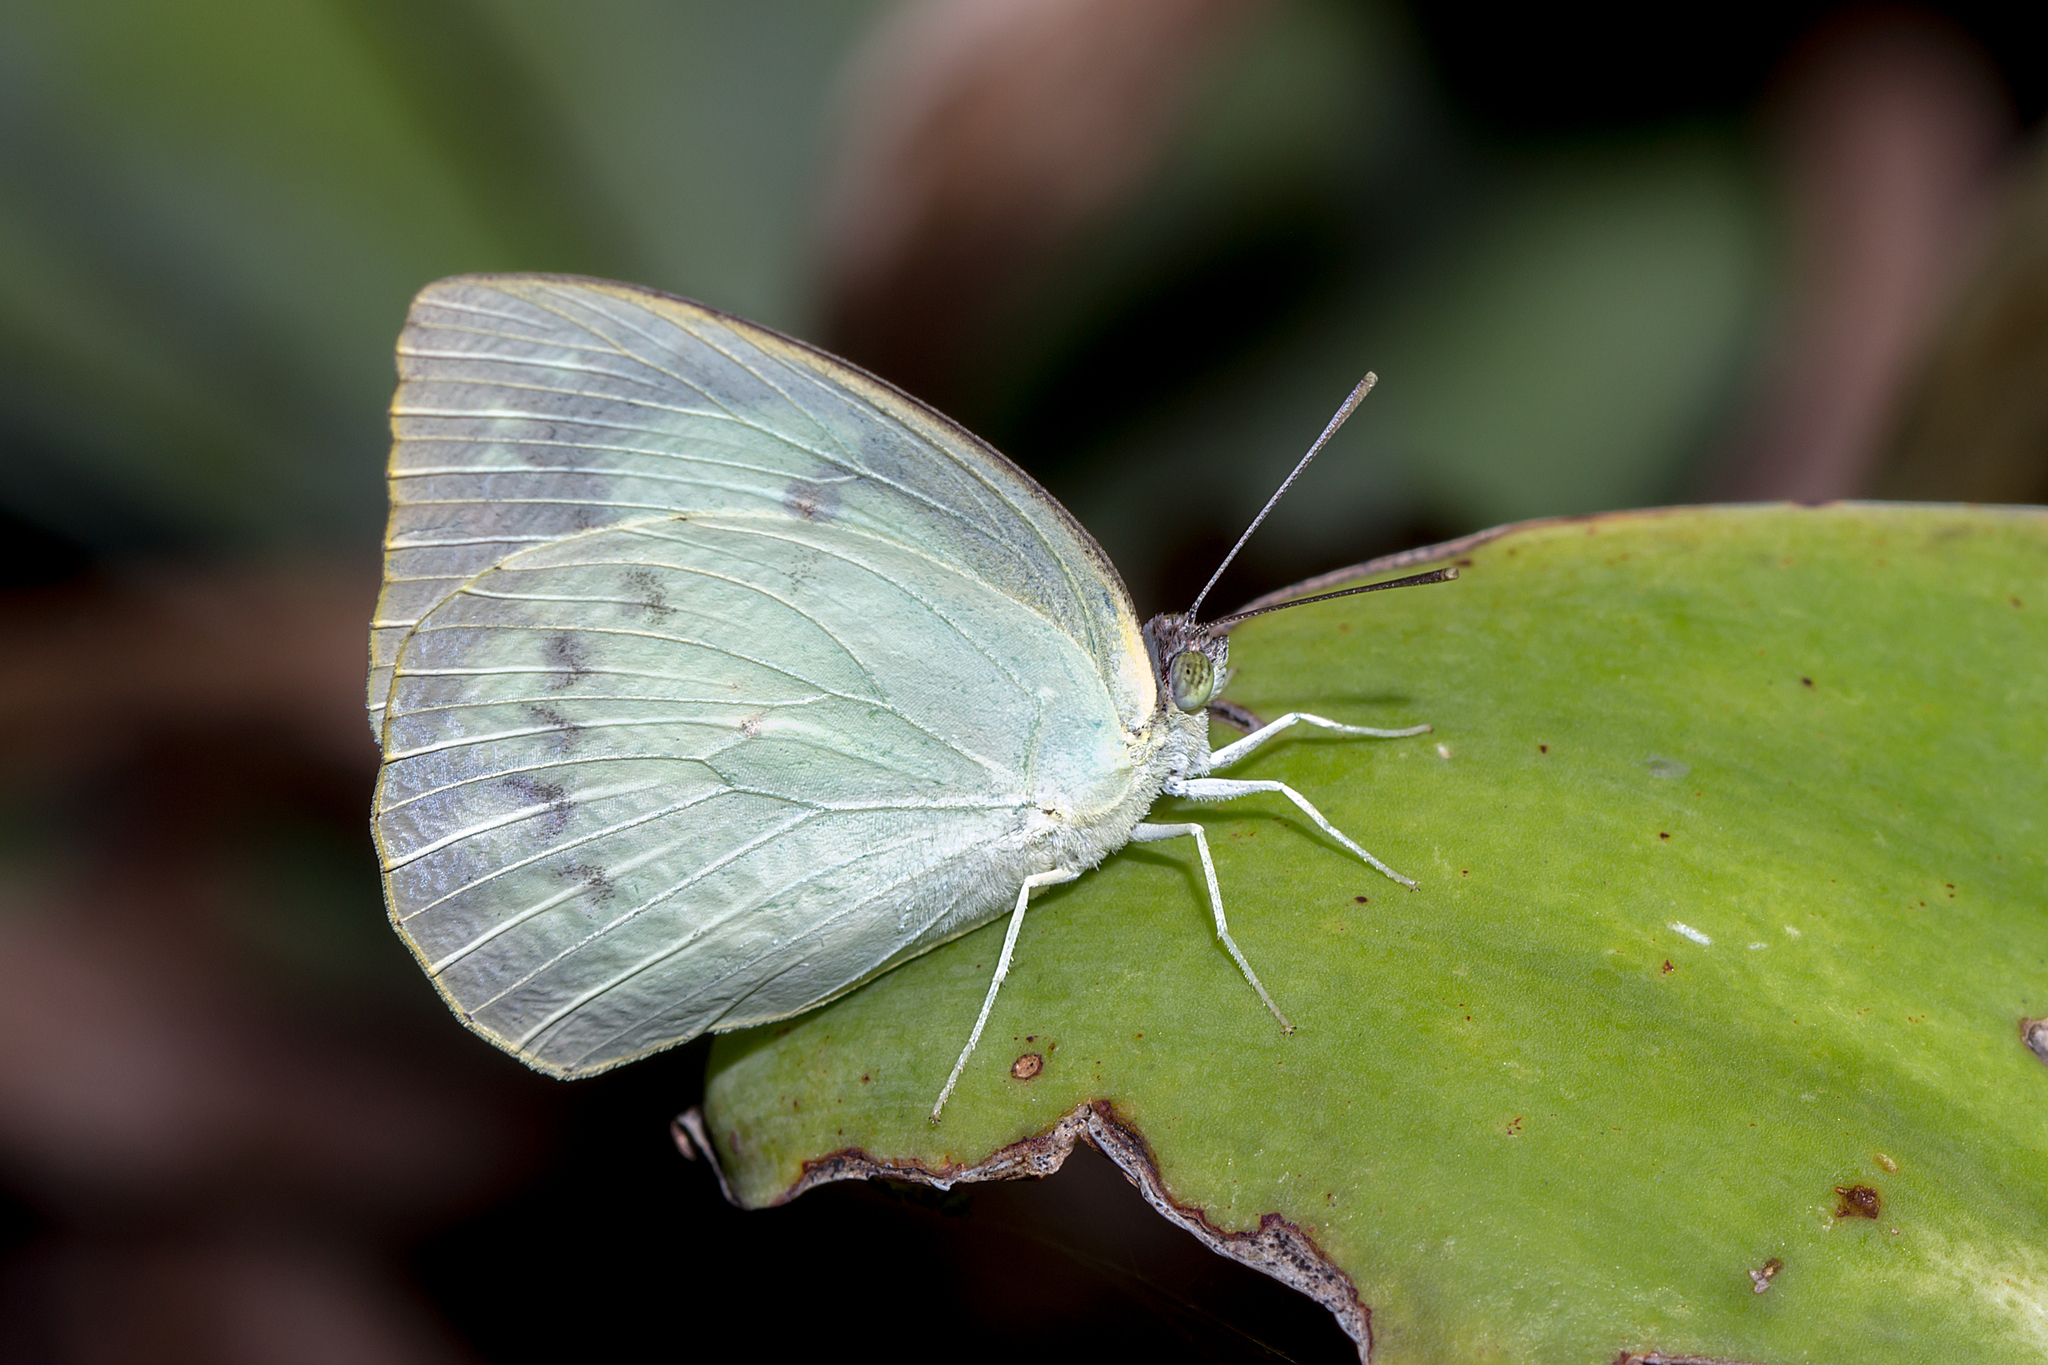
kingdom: Animalia
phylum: Arthropoda
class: Insecta
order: Lepidoptera
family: Pieridae
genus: Catopsilia
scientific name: Catopsilia pomona
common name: Common emigrant
